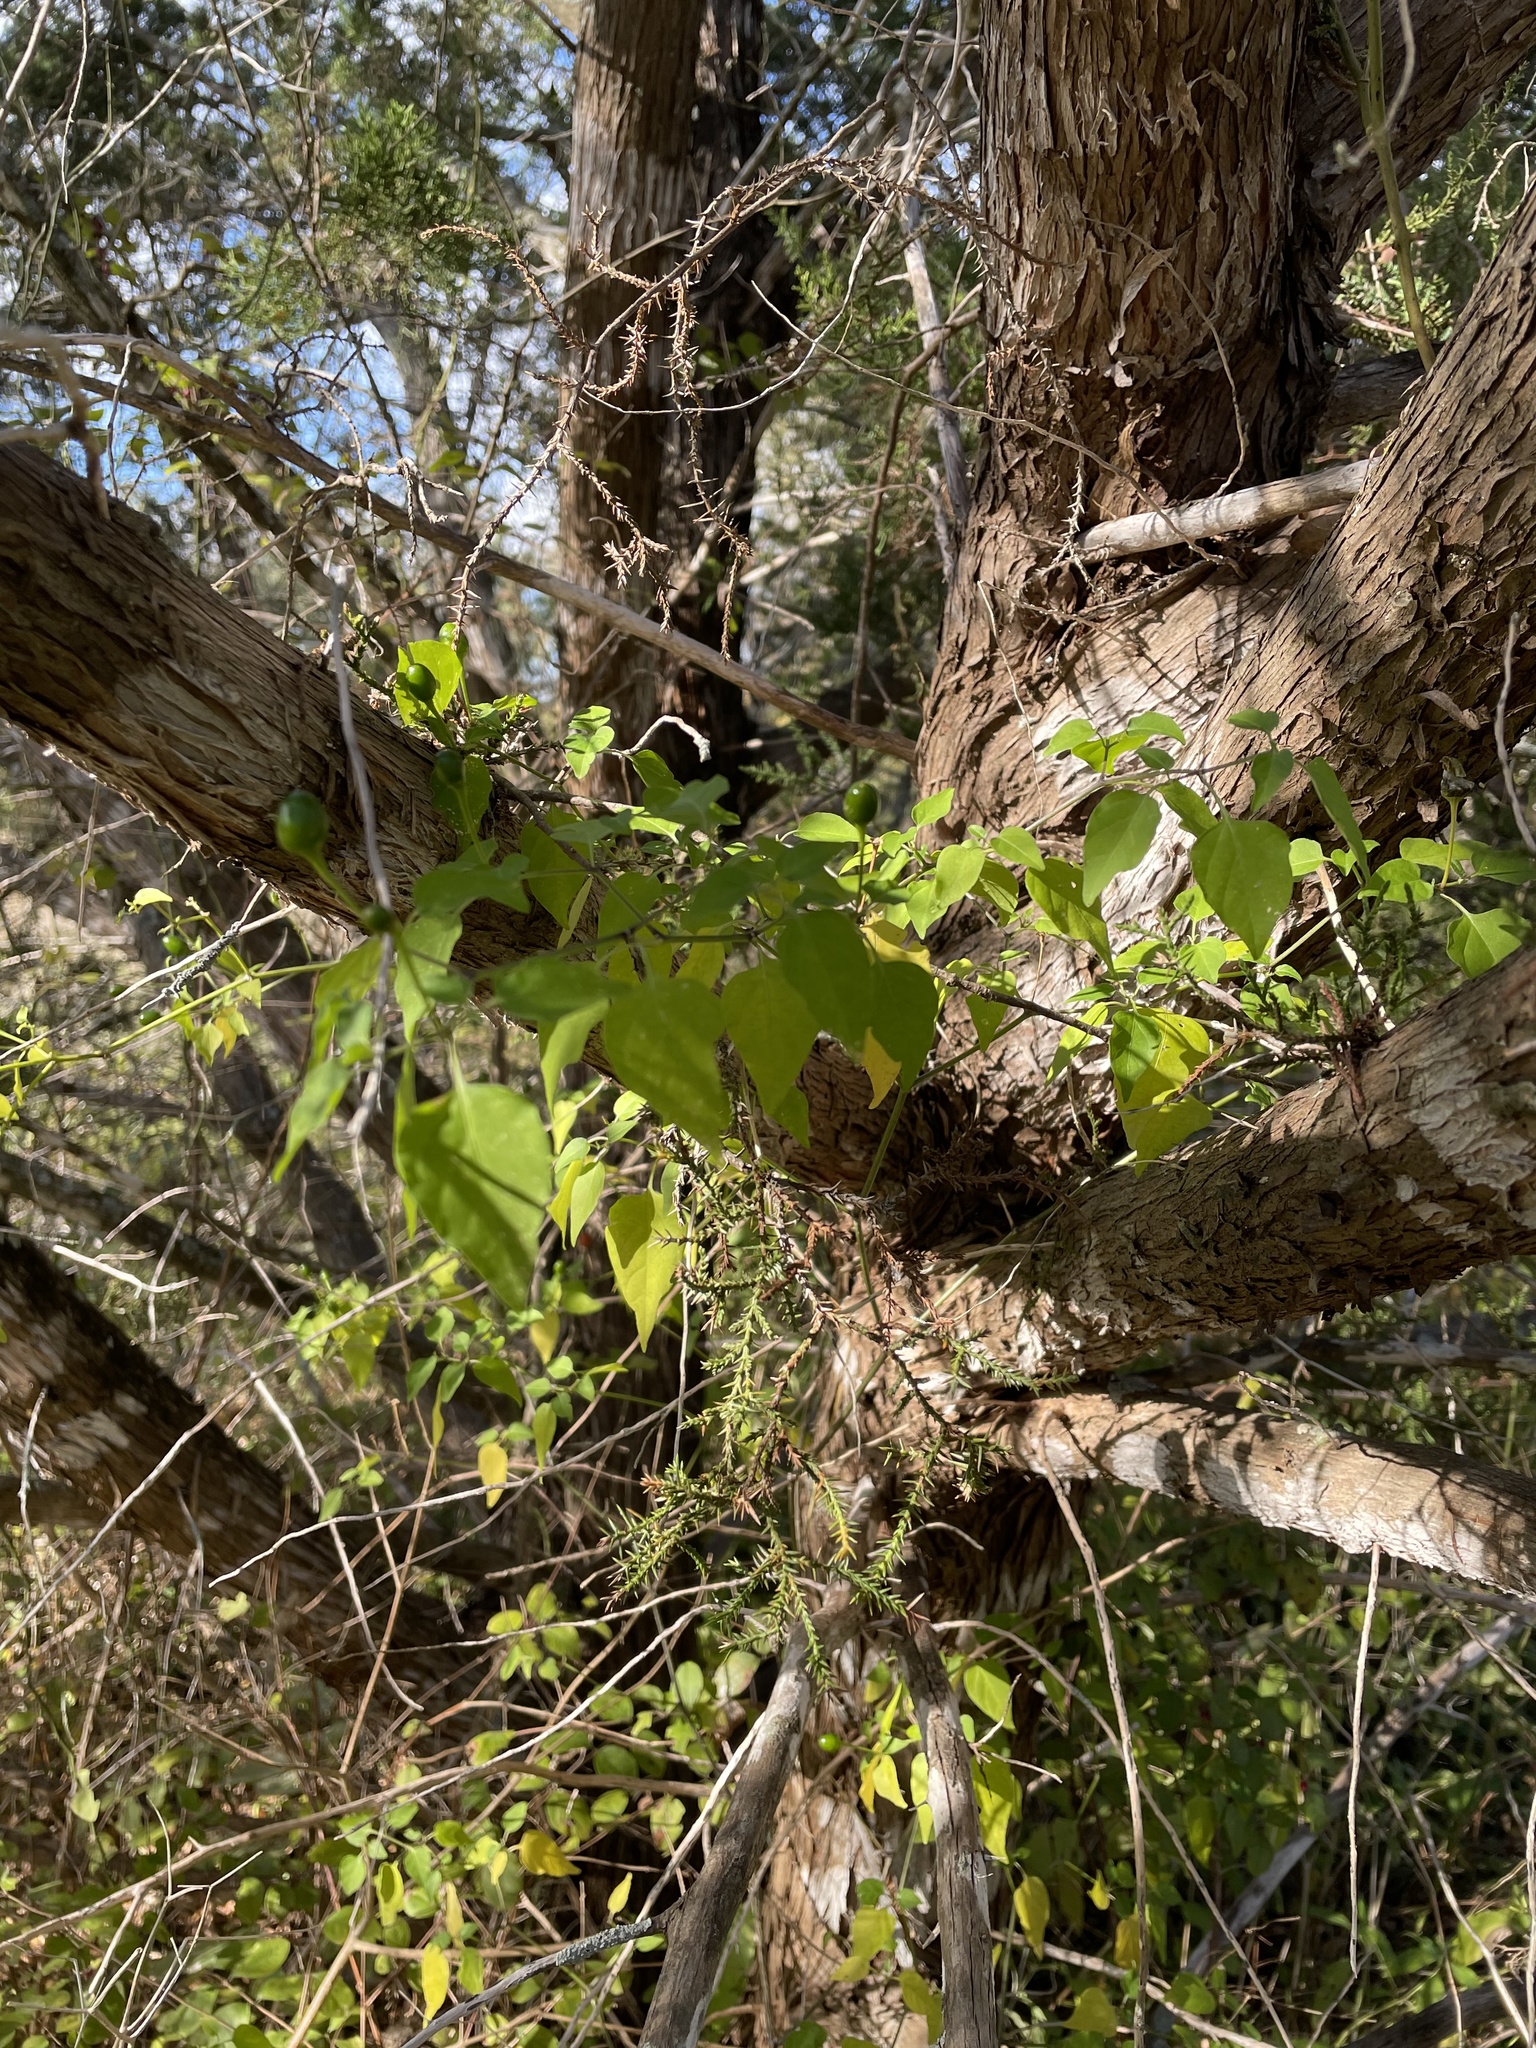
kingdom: Plantae
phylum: Tracheophyta
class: Magnoliopsida
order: Solanales
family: Solanaceae
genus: Capsicum
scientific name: Capsicum annuum
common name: Sweet pepper
